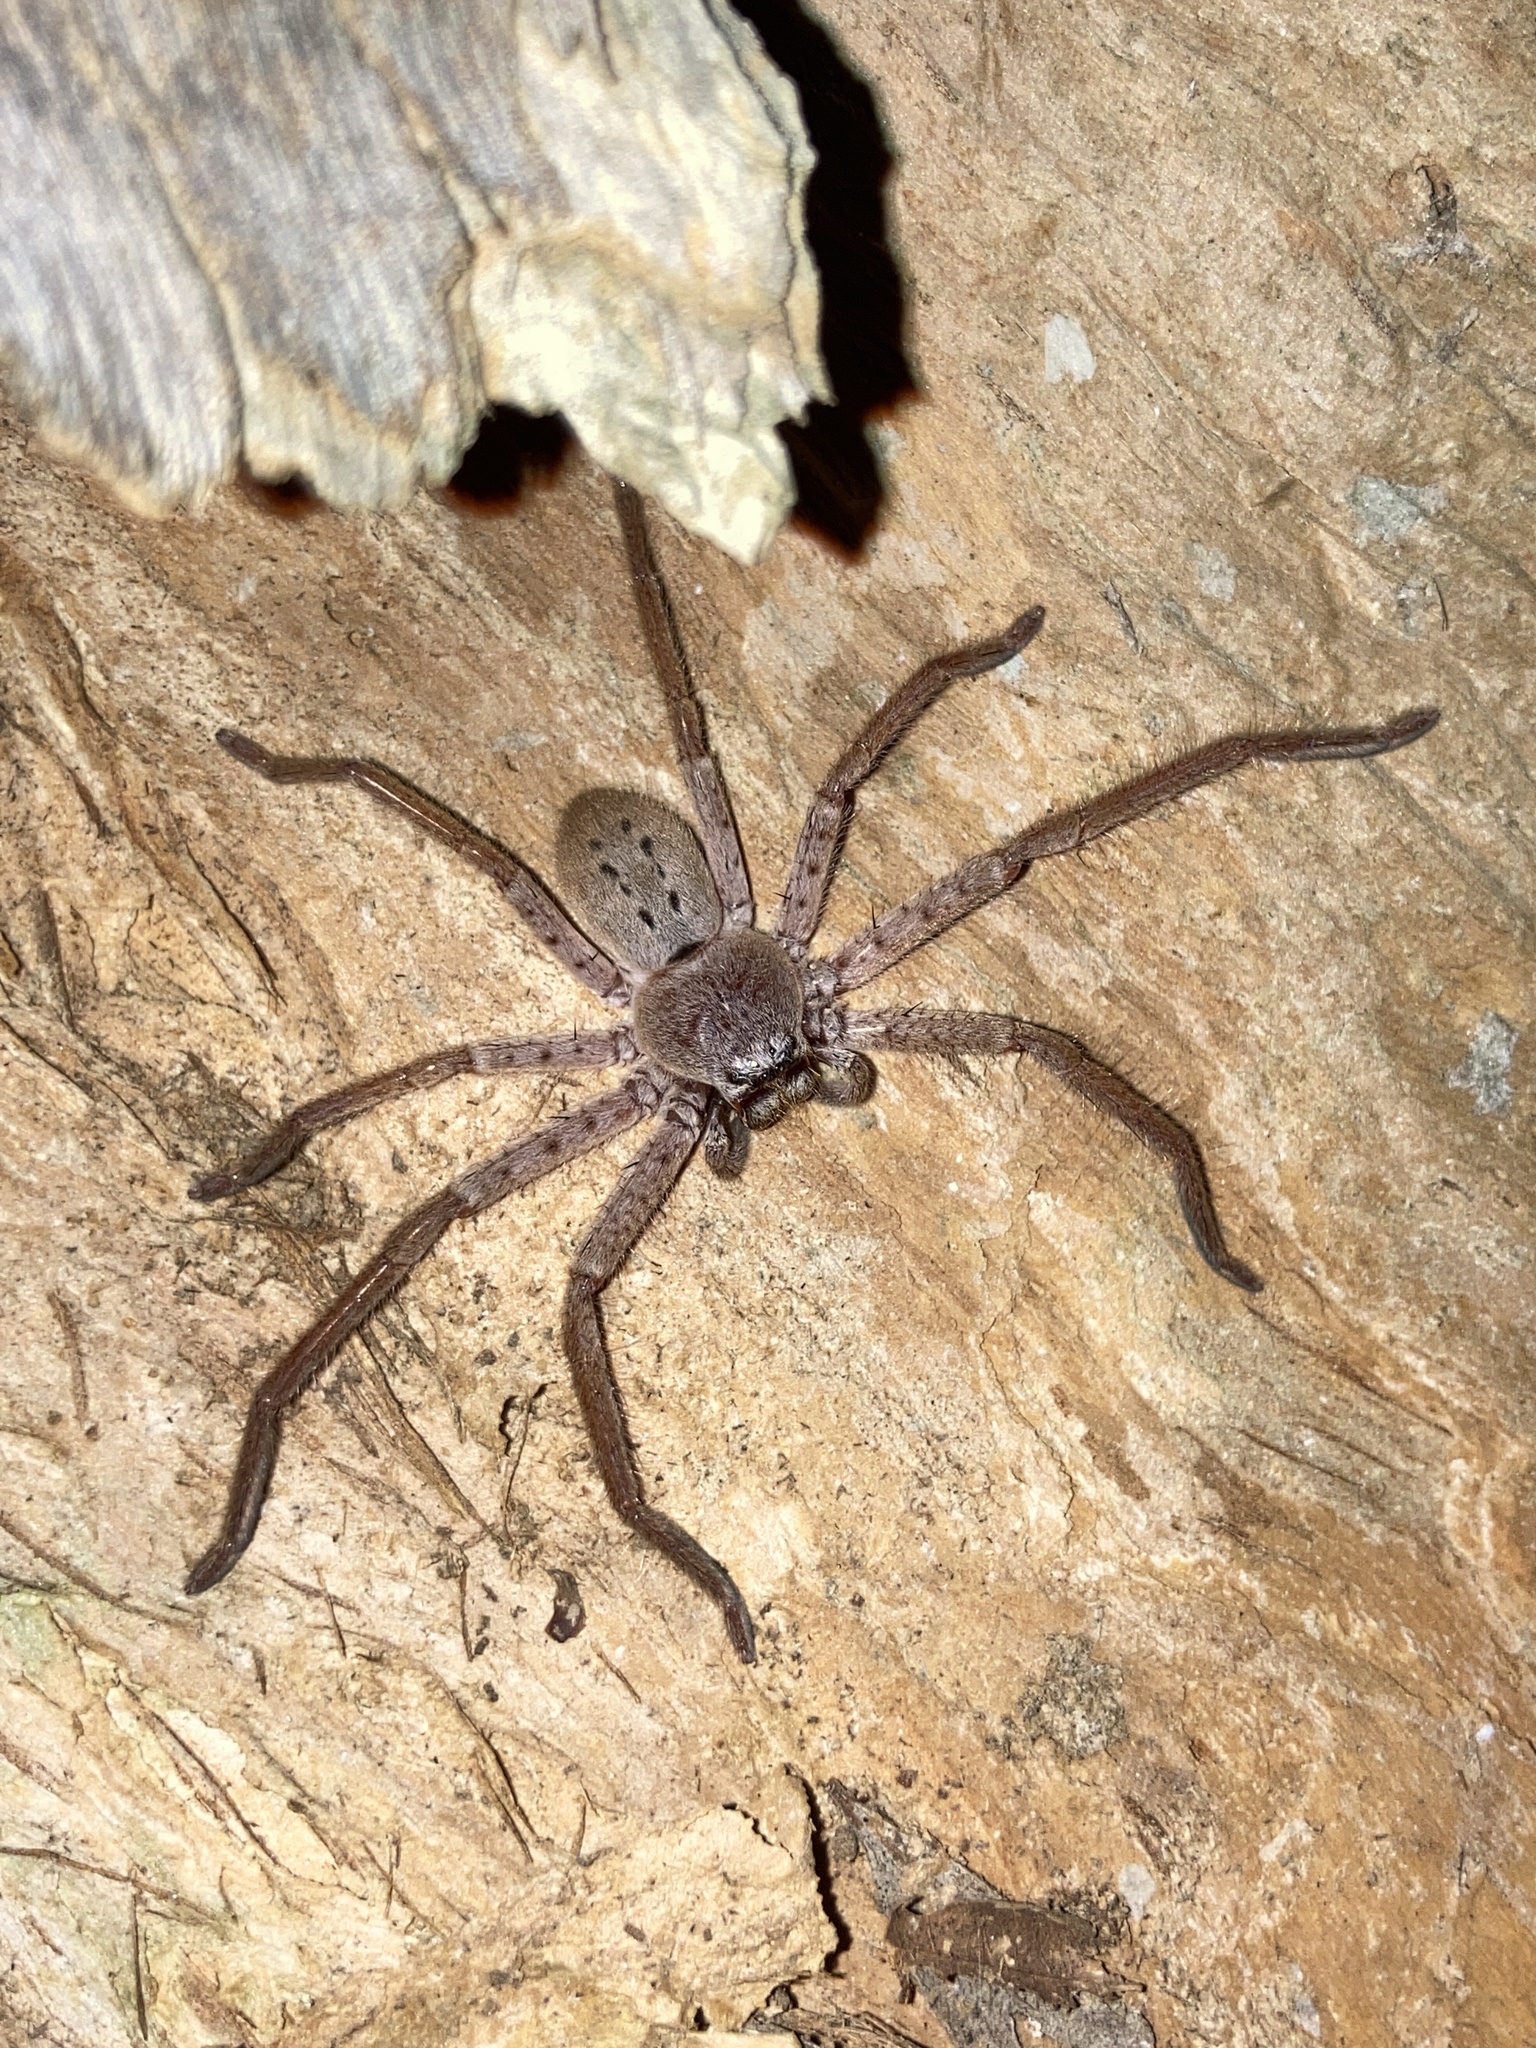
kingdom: Animalia
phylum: Arthropoda
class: Arachnida
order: Araneae
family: Sparassidae
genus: Isopeda
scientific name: Isopeda villosa
